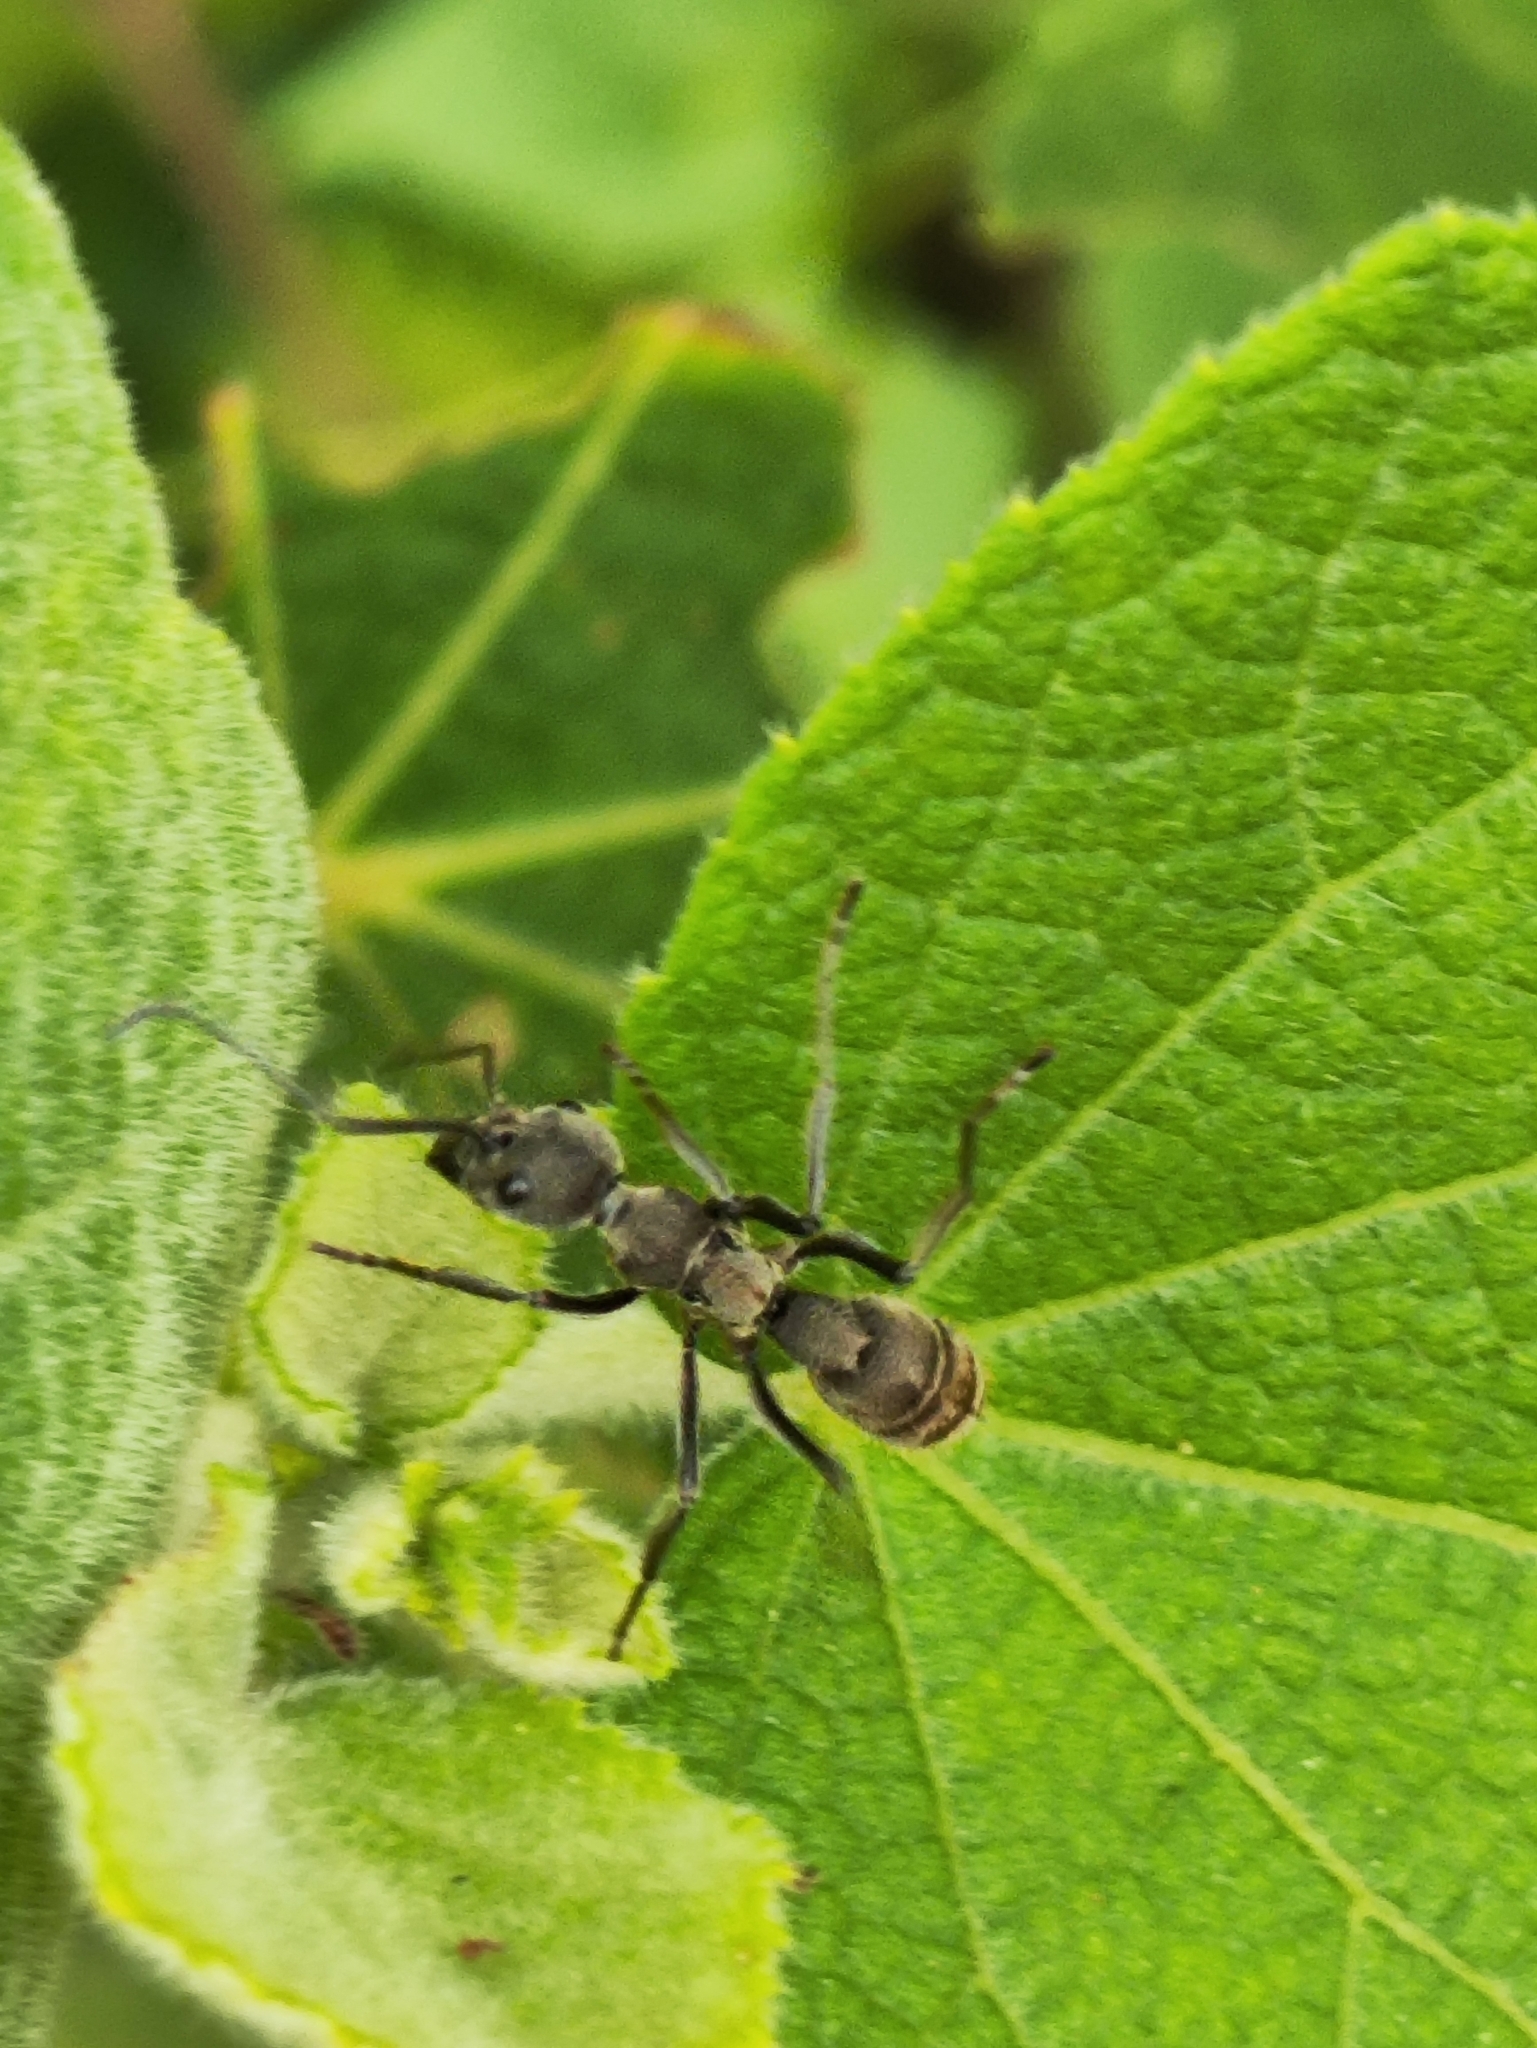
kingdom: Animalia
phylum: Arthropoda
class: Insecta
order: Hymenoptera
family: Formicidae
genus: Diacamma
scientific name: Diacamma rugosum
